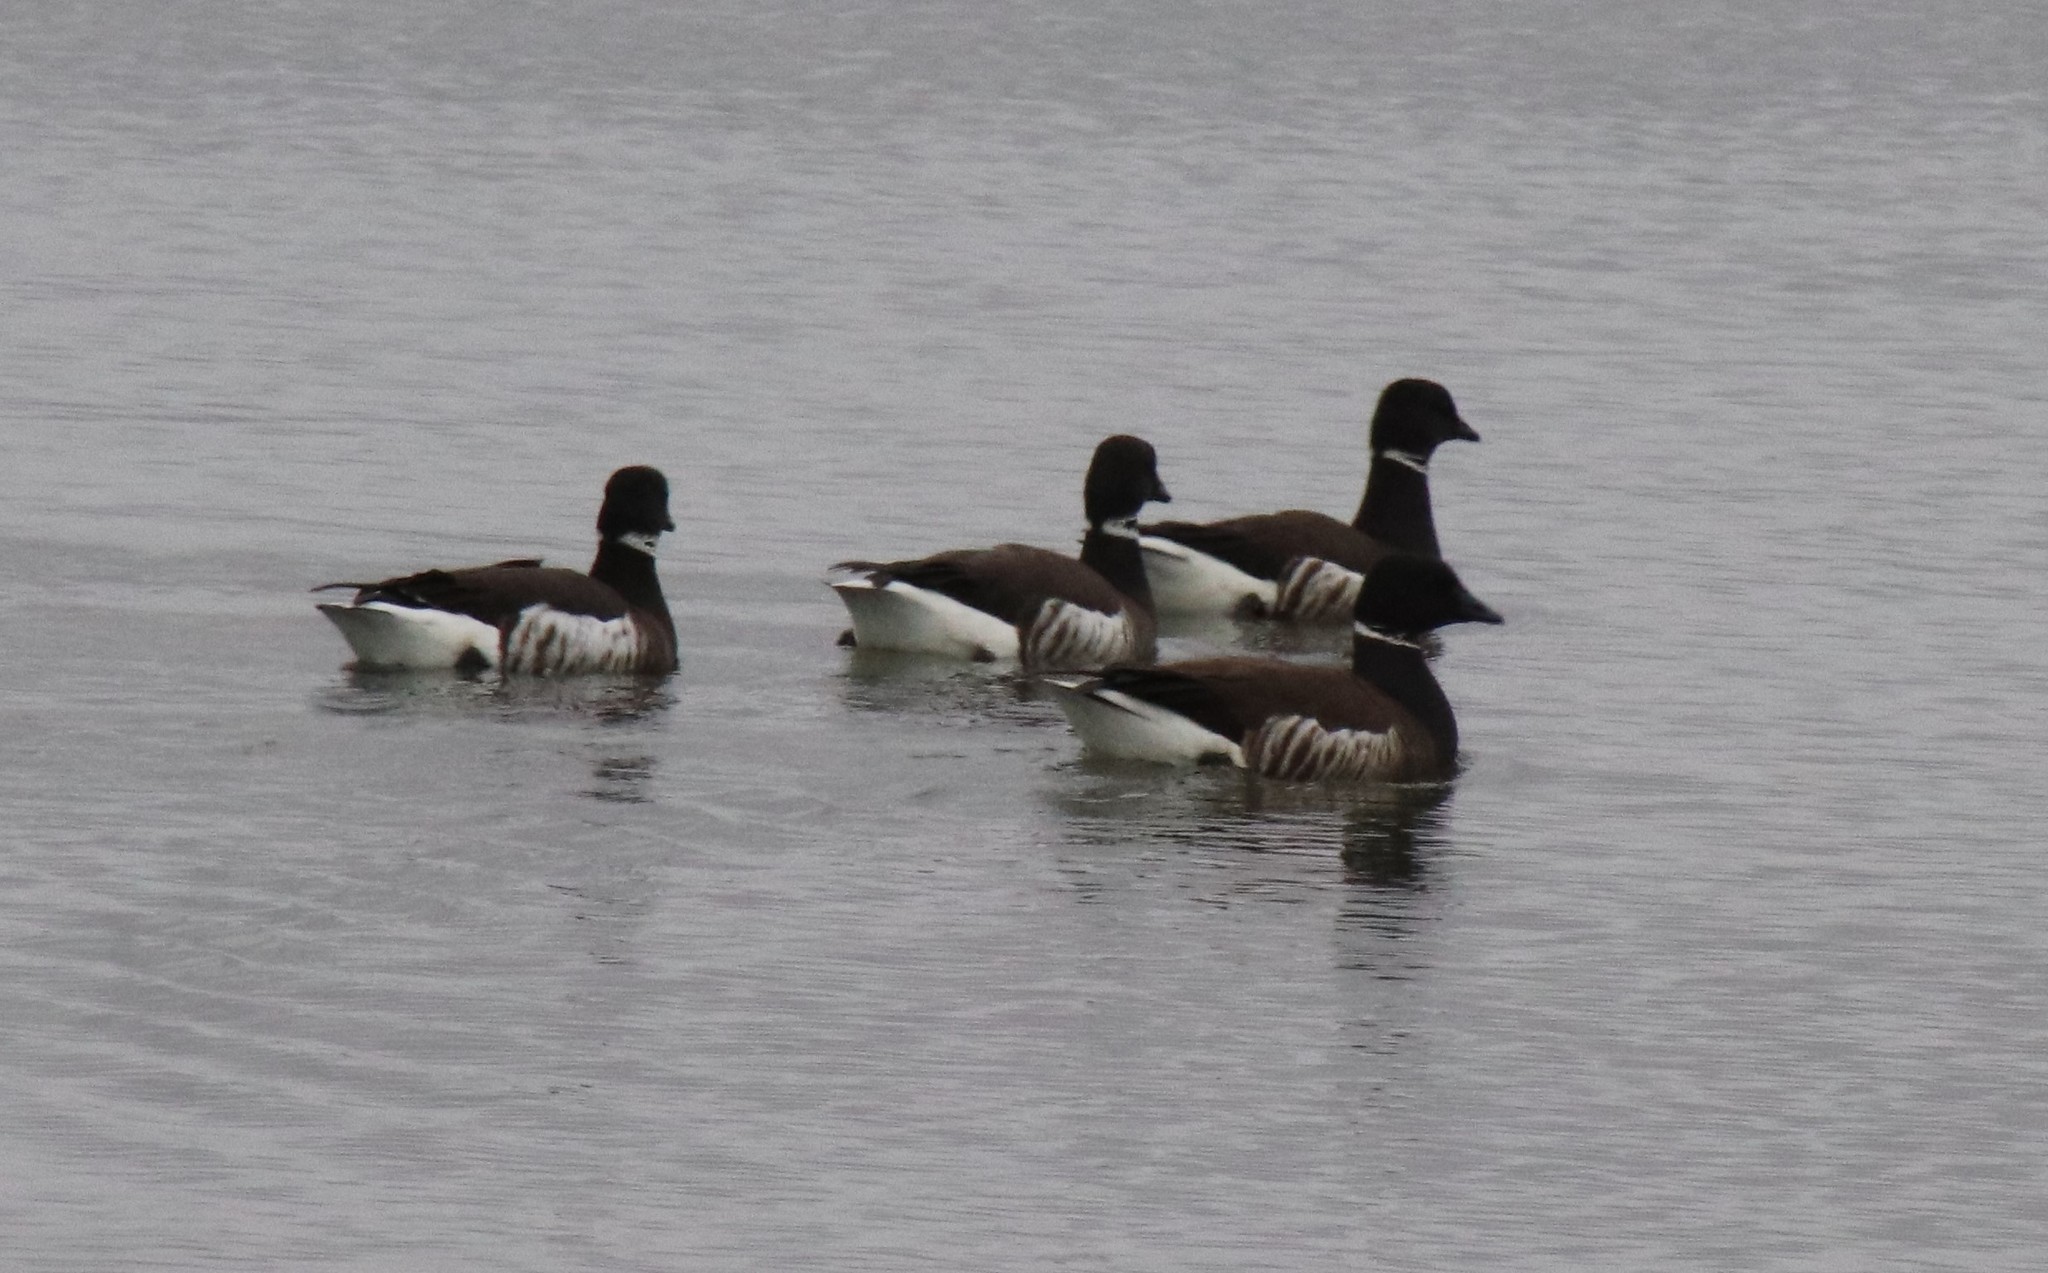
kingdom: Animalia
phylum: Chordata
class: Aves
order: Anseriformes
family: Anatidae
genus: Branta
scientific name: Branta bernicla
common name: Brant goose
